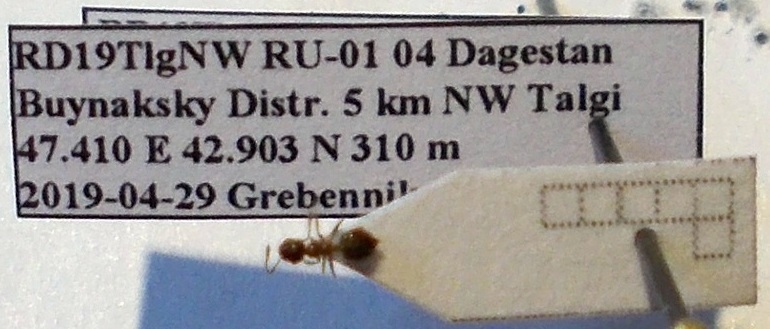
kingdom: Animalia
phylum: Arthropoda
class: Insecta
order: Hymenoptera
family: Formicidae
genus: Crematogaster
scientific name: Crematogaster sordidula
